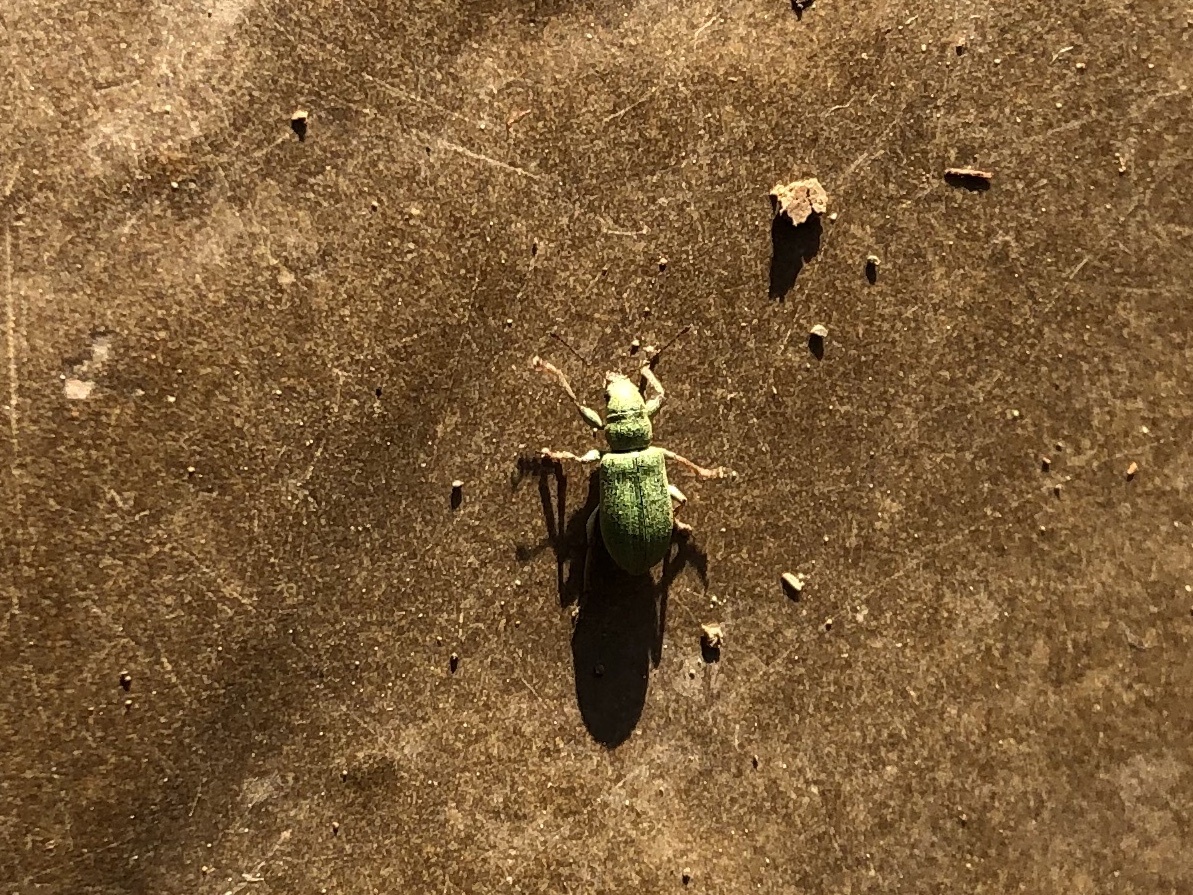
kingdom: Animalia
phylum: Arthropoda
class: Insecta
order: Coleoptera
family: Curculionidae
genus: Pachyrhinus
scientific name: Pachyrhinus lethierryi
